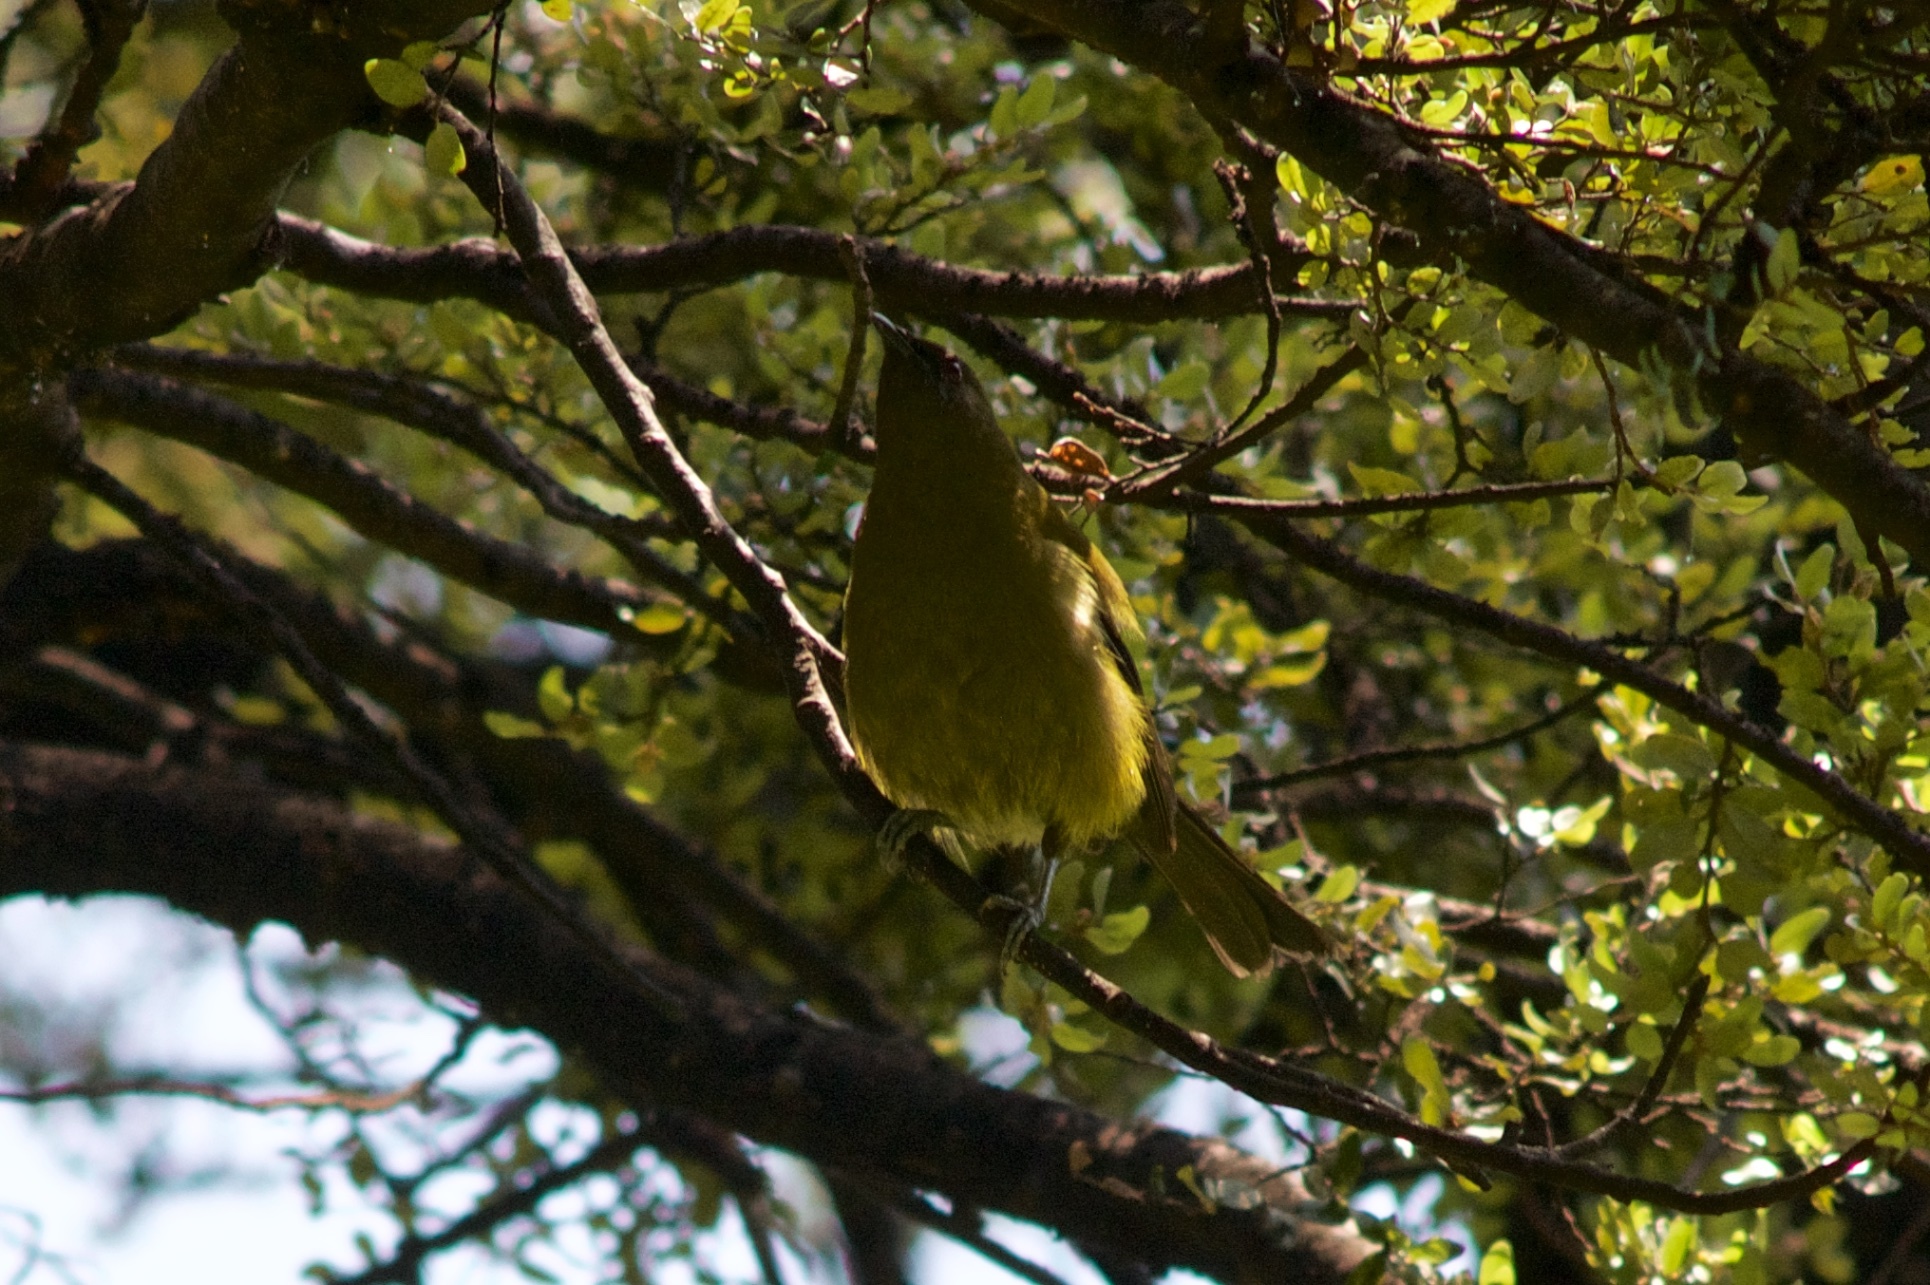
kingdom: Animalia
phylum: Chordata
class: Aves
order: Passeriformes
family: Meliphagidae
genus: Anthornis
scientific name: Anthornis melanura
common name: New zealand bellbird
